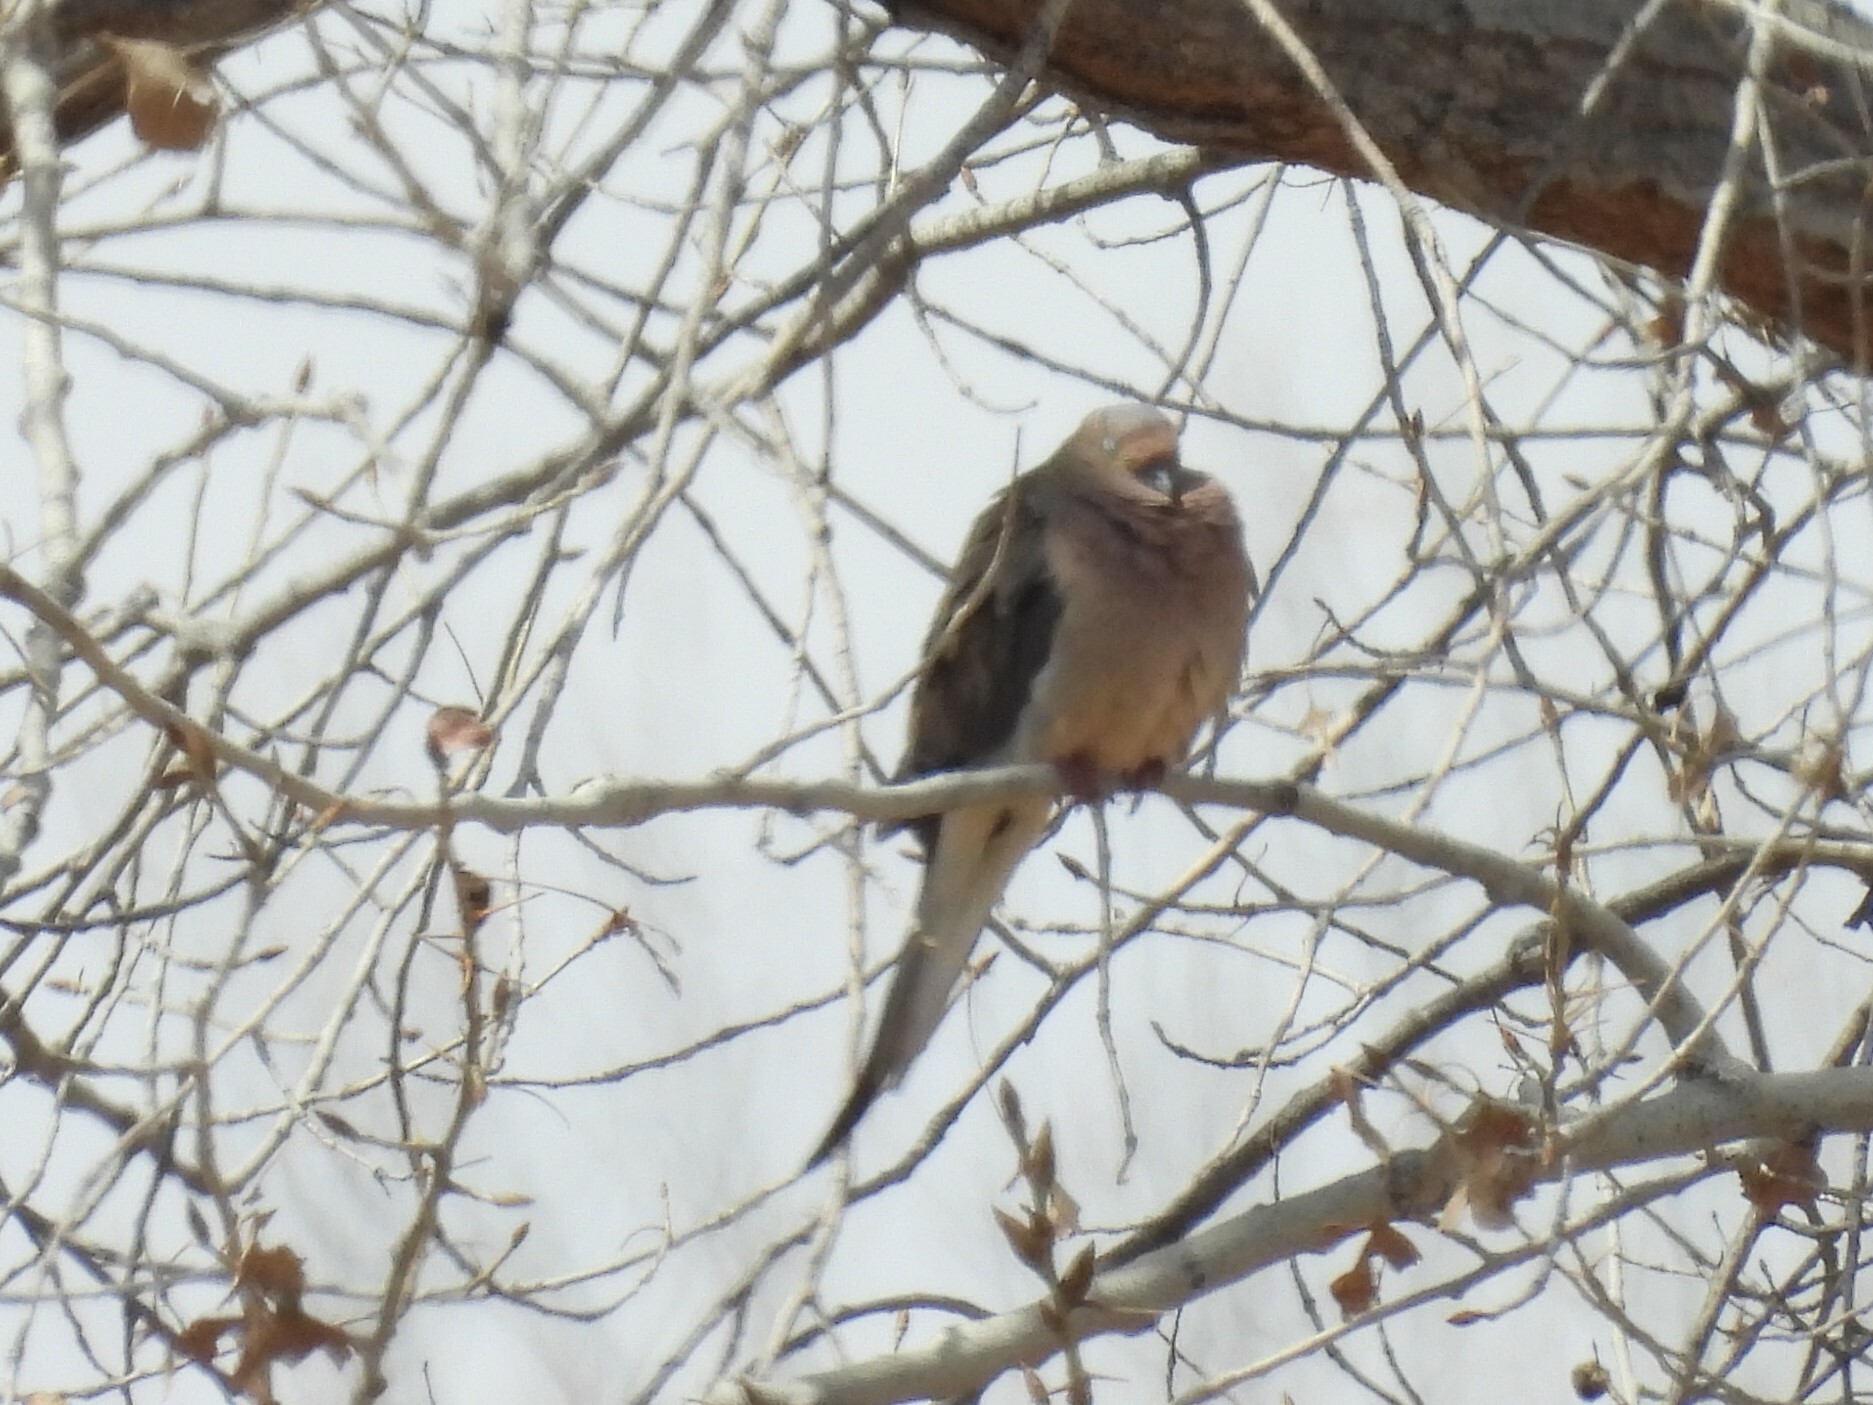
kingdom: Animalia
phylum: Chordata
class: Aves
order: Columbiformes
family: Columbidae
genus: Zenaida
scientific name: Zenaida macroura
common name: Mourning dove
